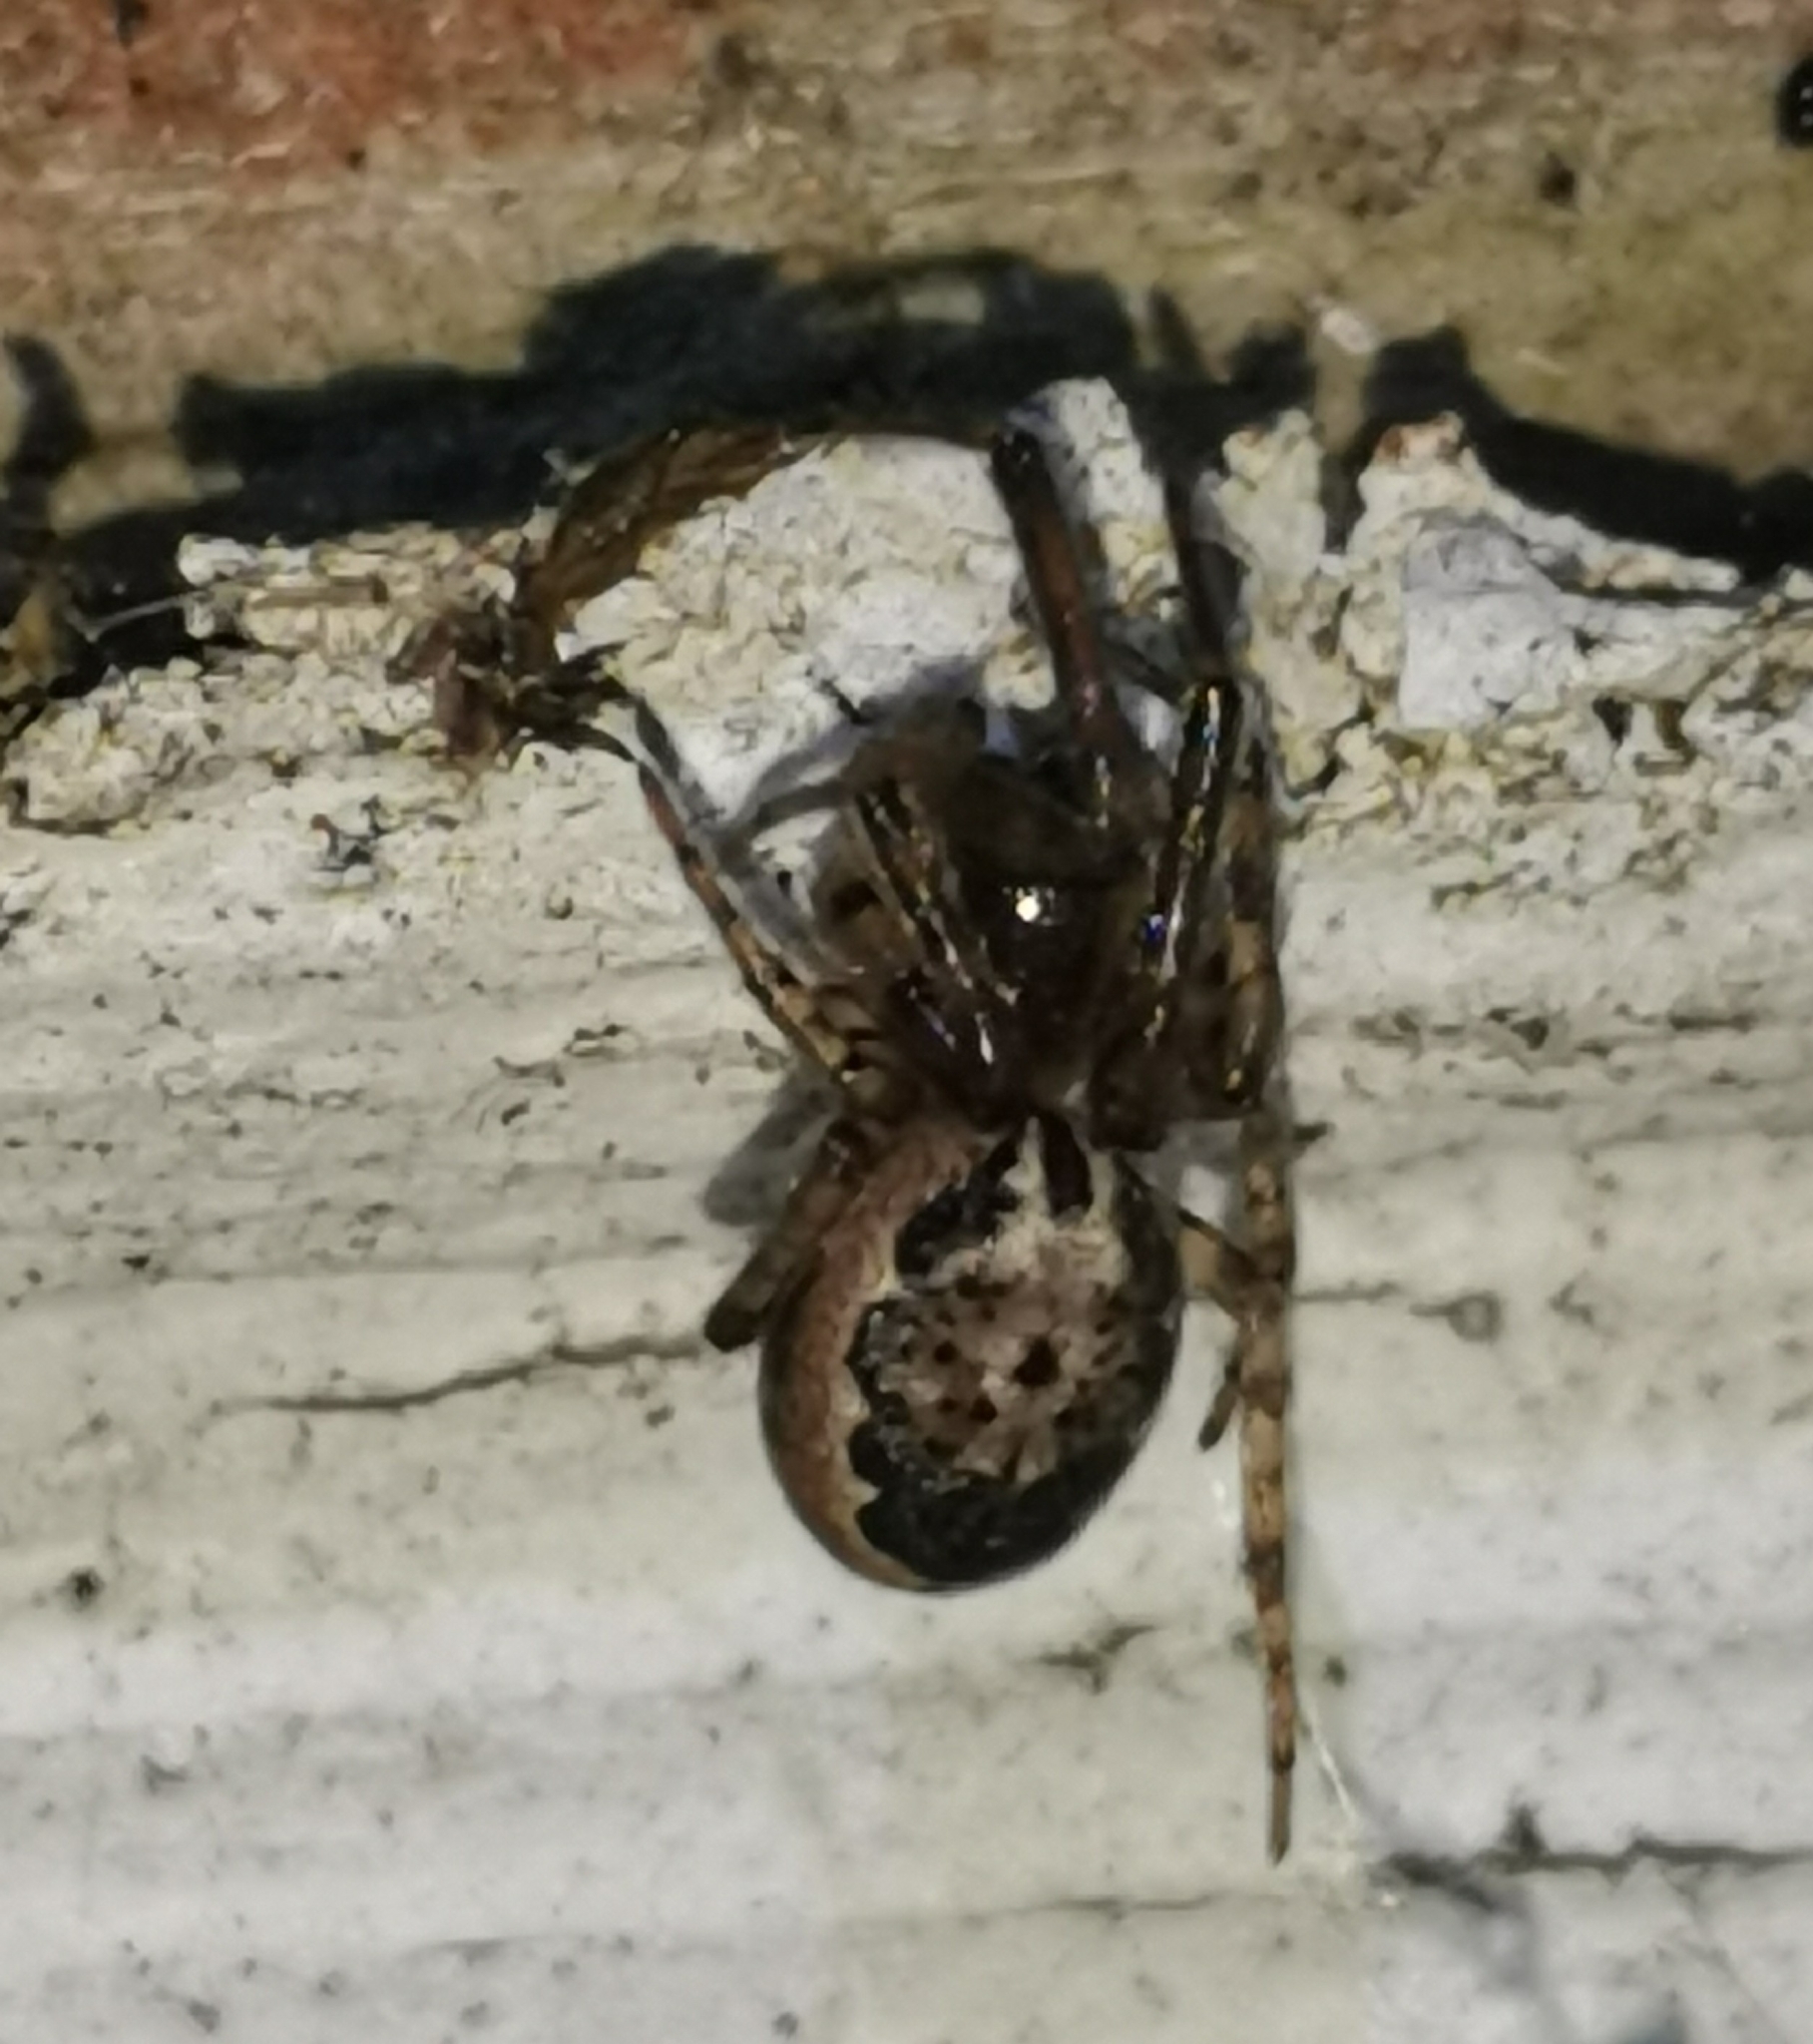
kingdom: Animalia
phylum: Arthropoda
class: Arachnida
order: Araneae
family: Araneidae
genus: Leviellus
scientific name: Leviellus stroemi
